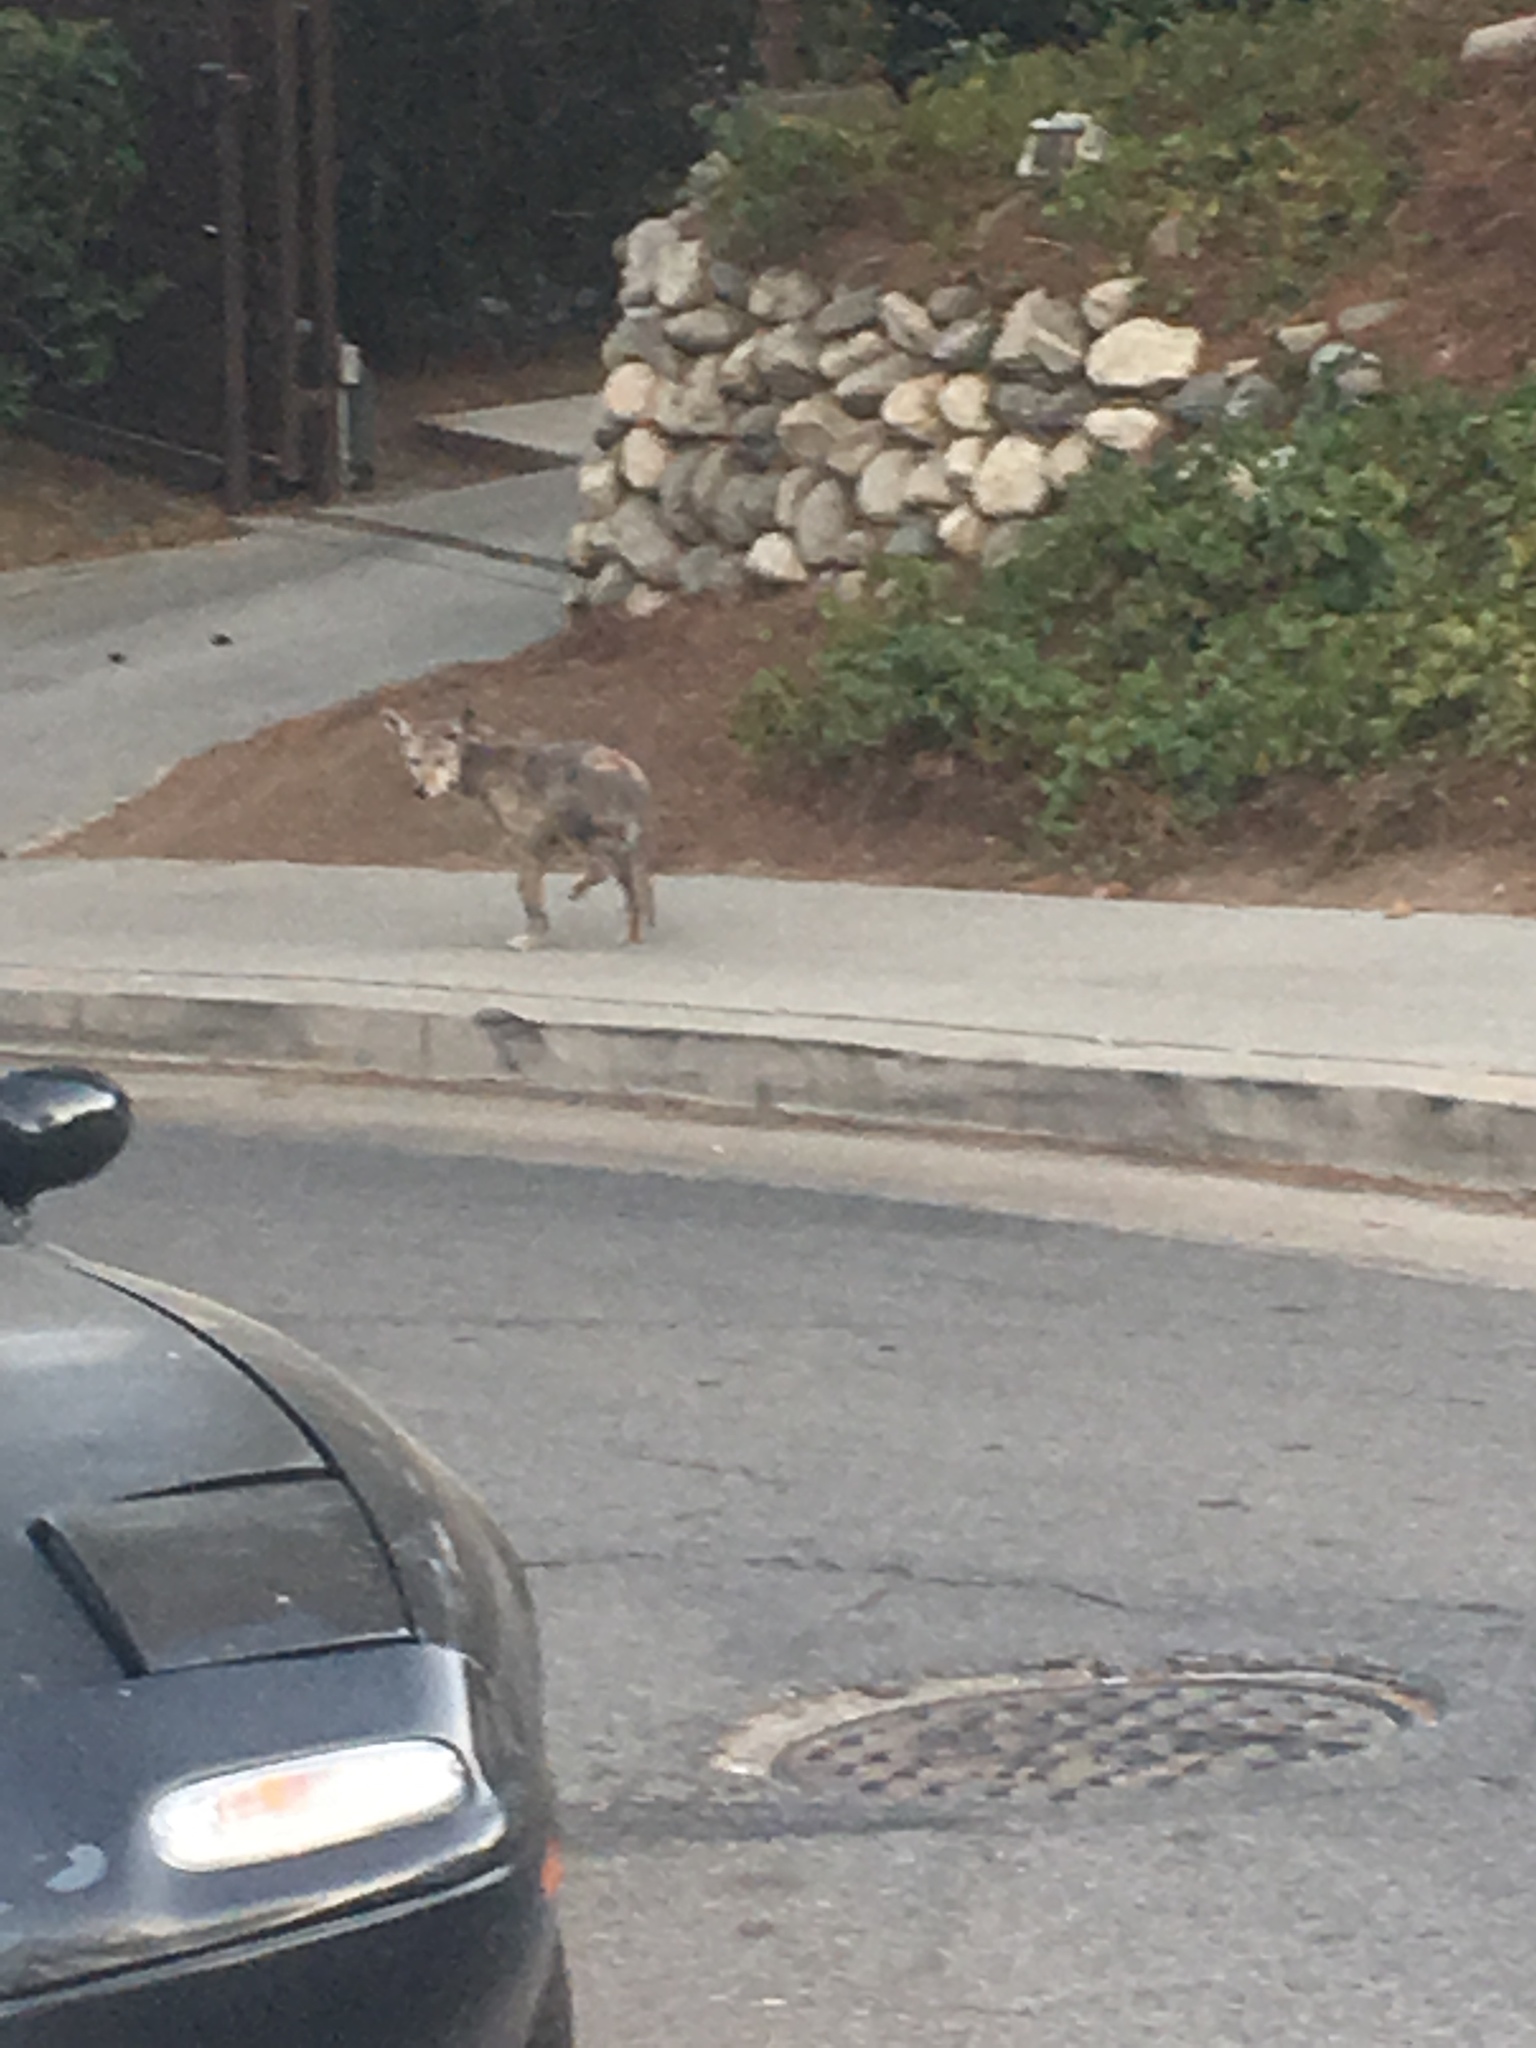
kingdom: Animalia
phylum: Chordata
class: Mammalia
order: Carnivora
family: Canidae
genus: Canis
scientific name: Canis latrans
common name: Coyote
